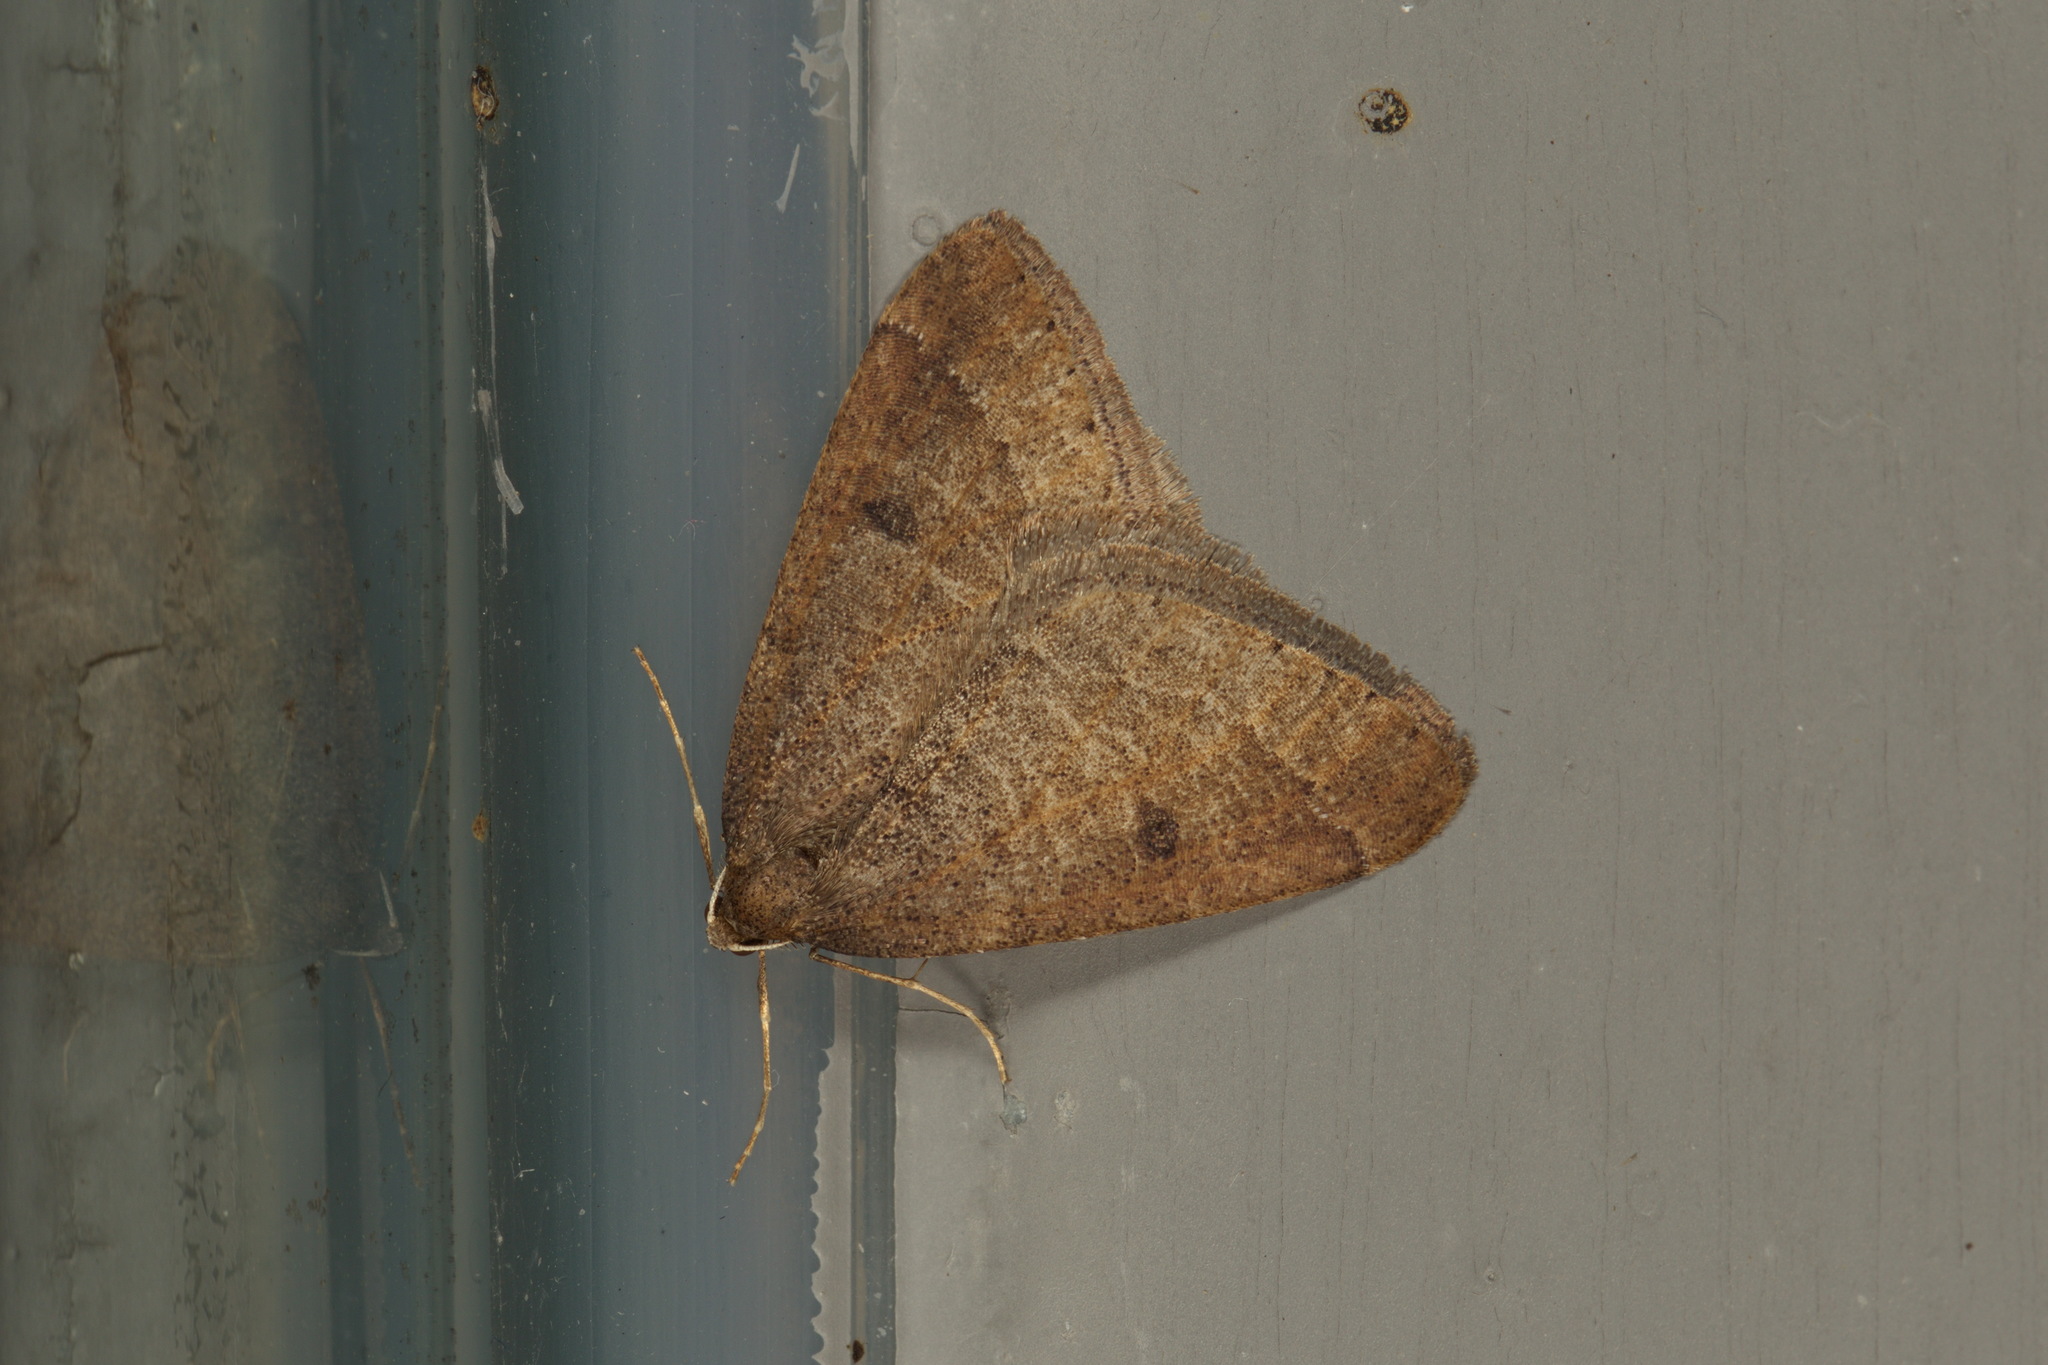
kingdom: Animalia
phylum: Arthropoda
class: Insecta
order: Lepidoptera
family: Geometridae
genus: Theria
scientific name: Theria primaria
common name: Early moth
